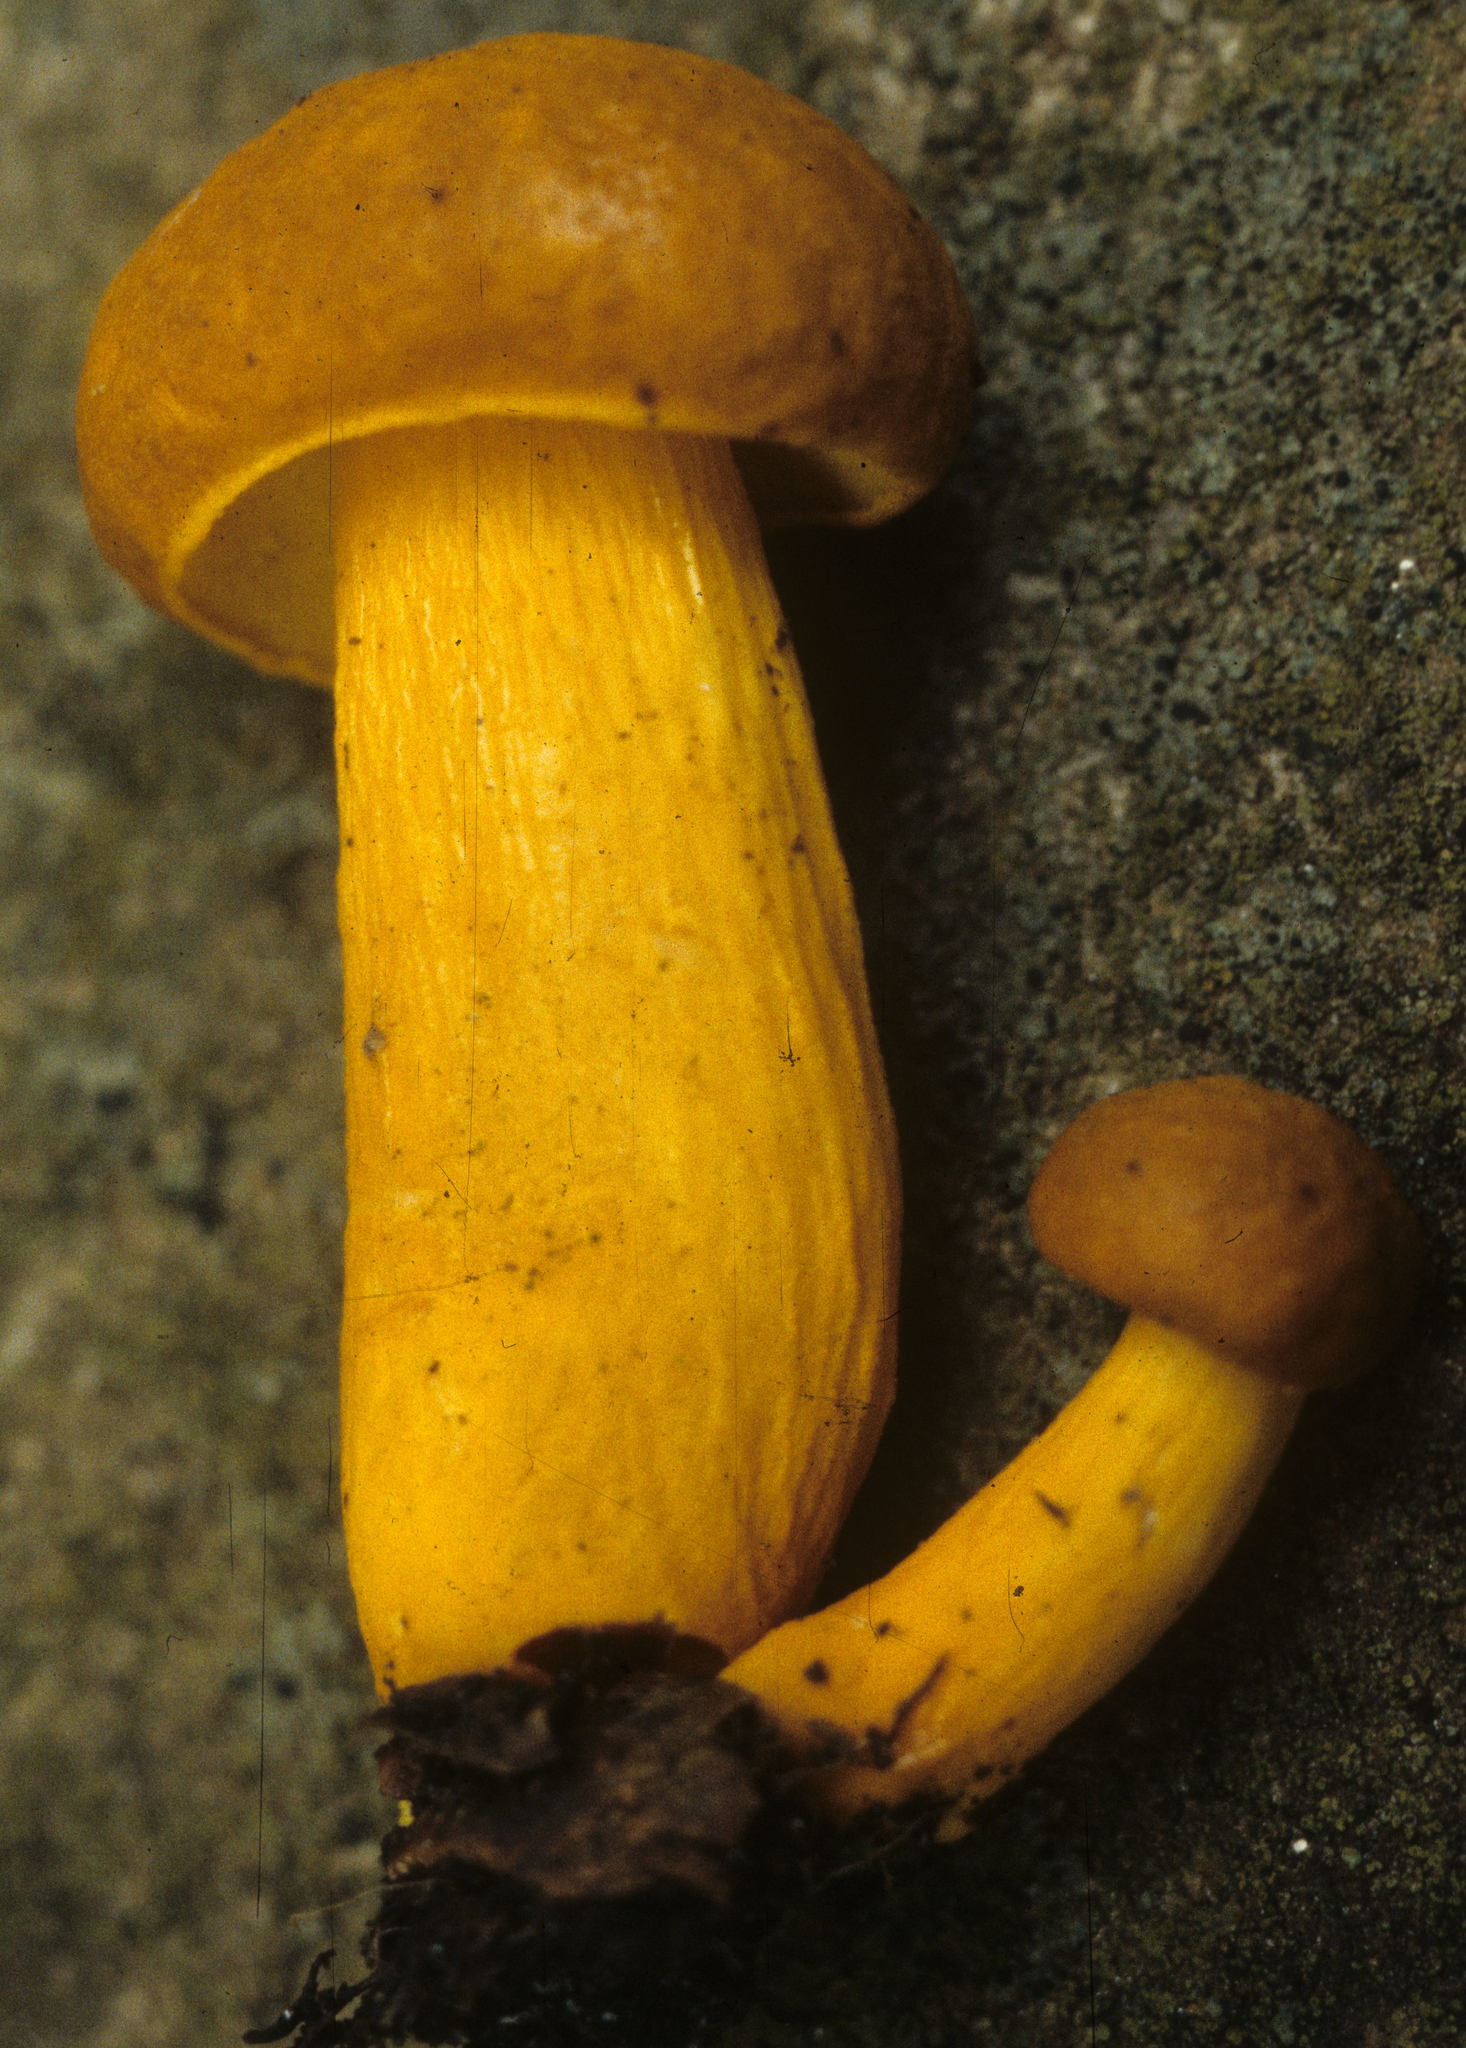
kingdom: Fungi
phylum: Basidiomycota
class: Agaricomycetes
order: Boletales
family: Boletaceae
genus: Boletus
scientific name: Boletus auripes
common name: Butter-foot bolete
